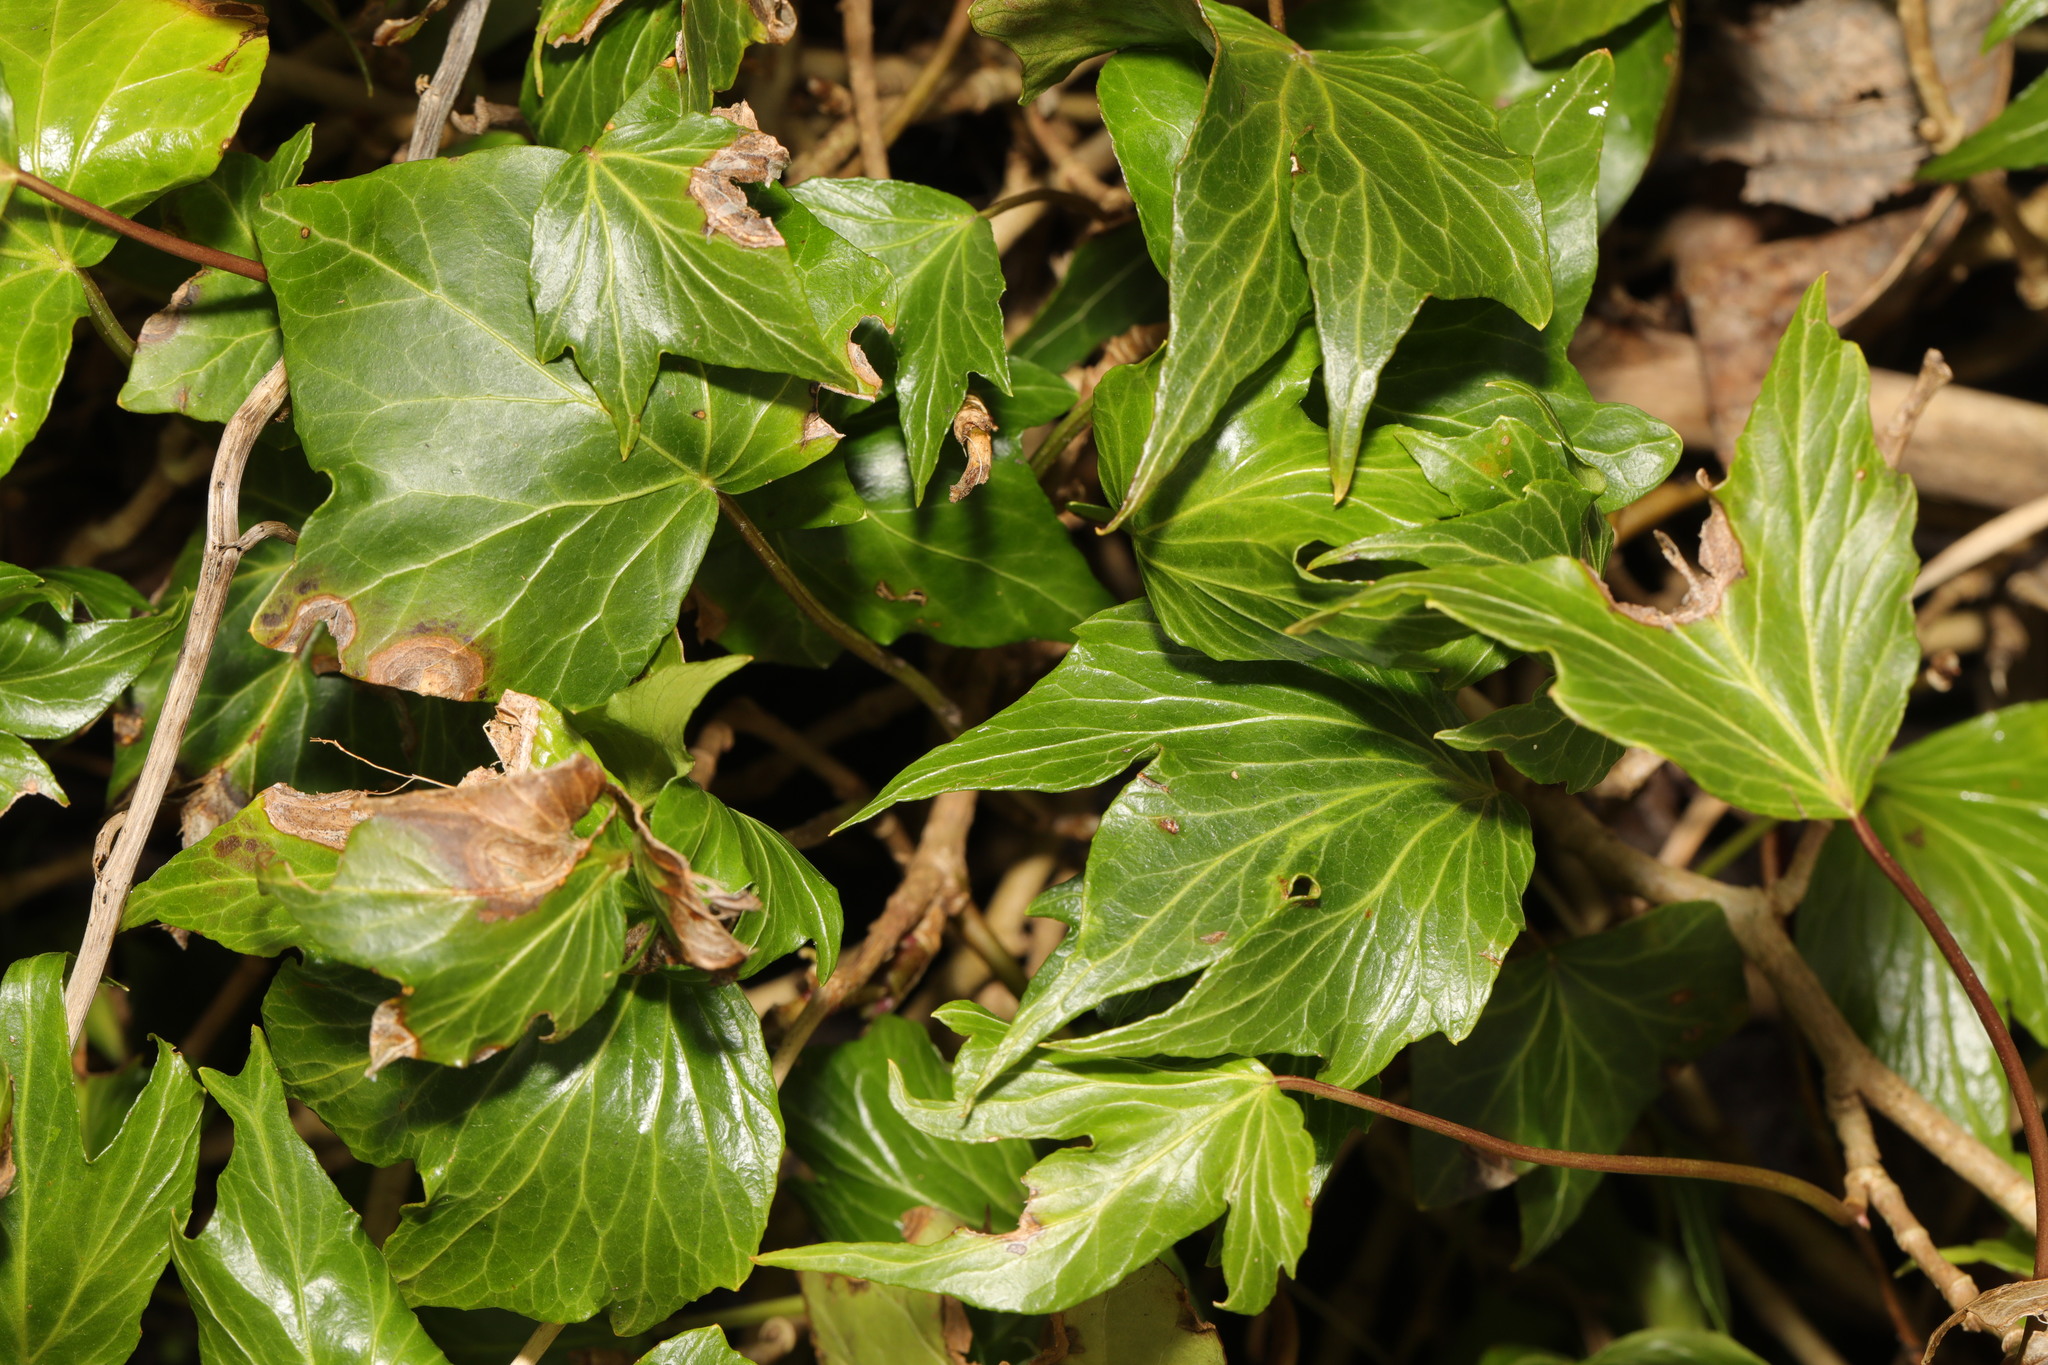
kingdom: Plantae
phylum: Tracheophyta
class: Magnoliopsida
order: Apiales
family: Araliaceae
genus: Hedera
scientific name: Hedera helix
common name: Ivy
